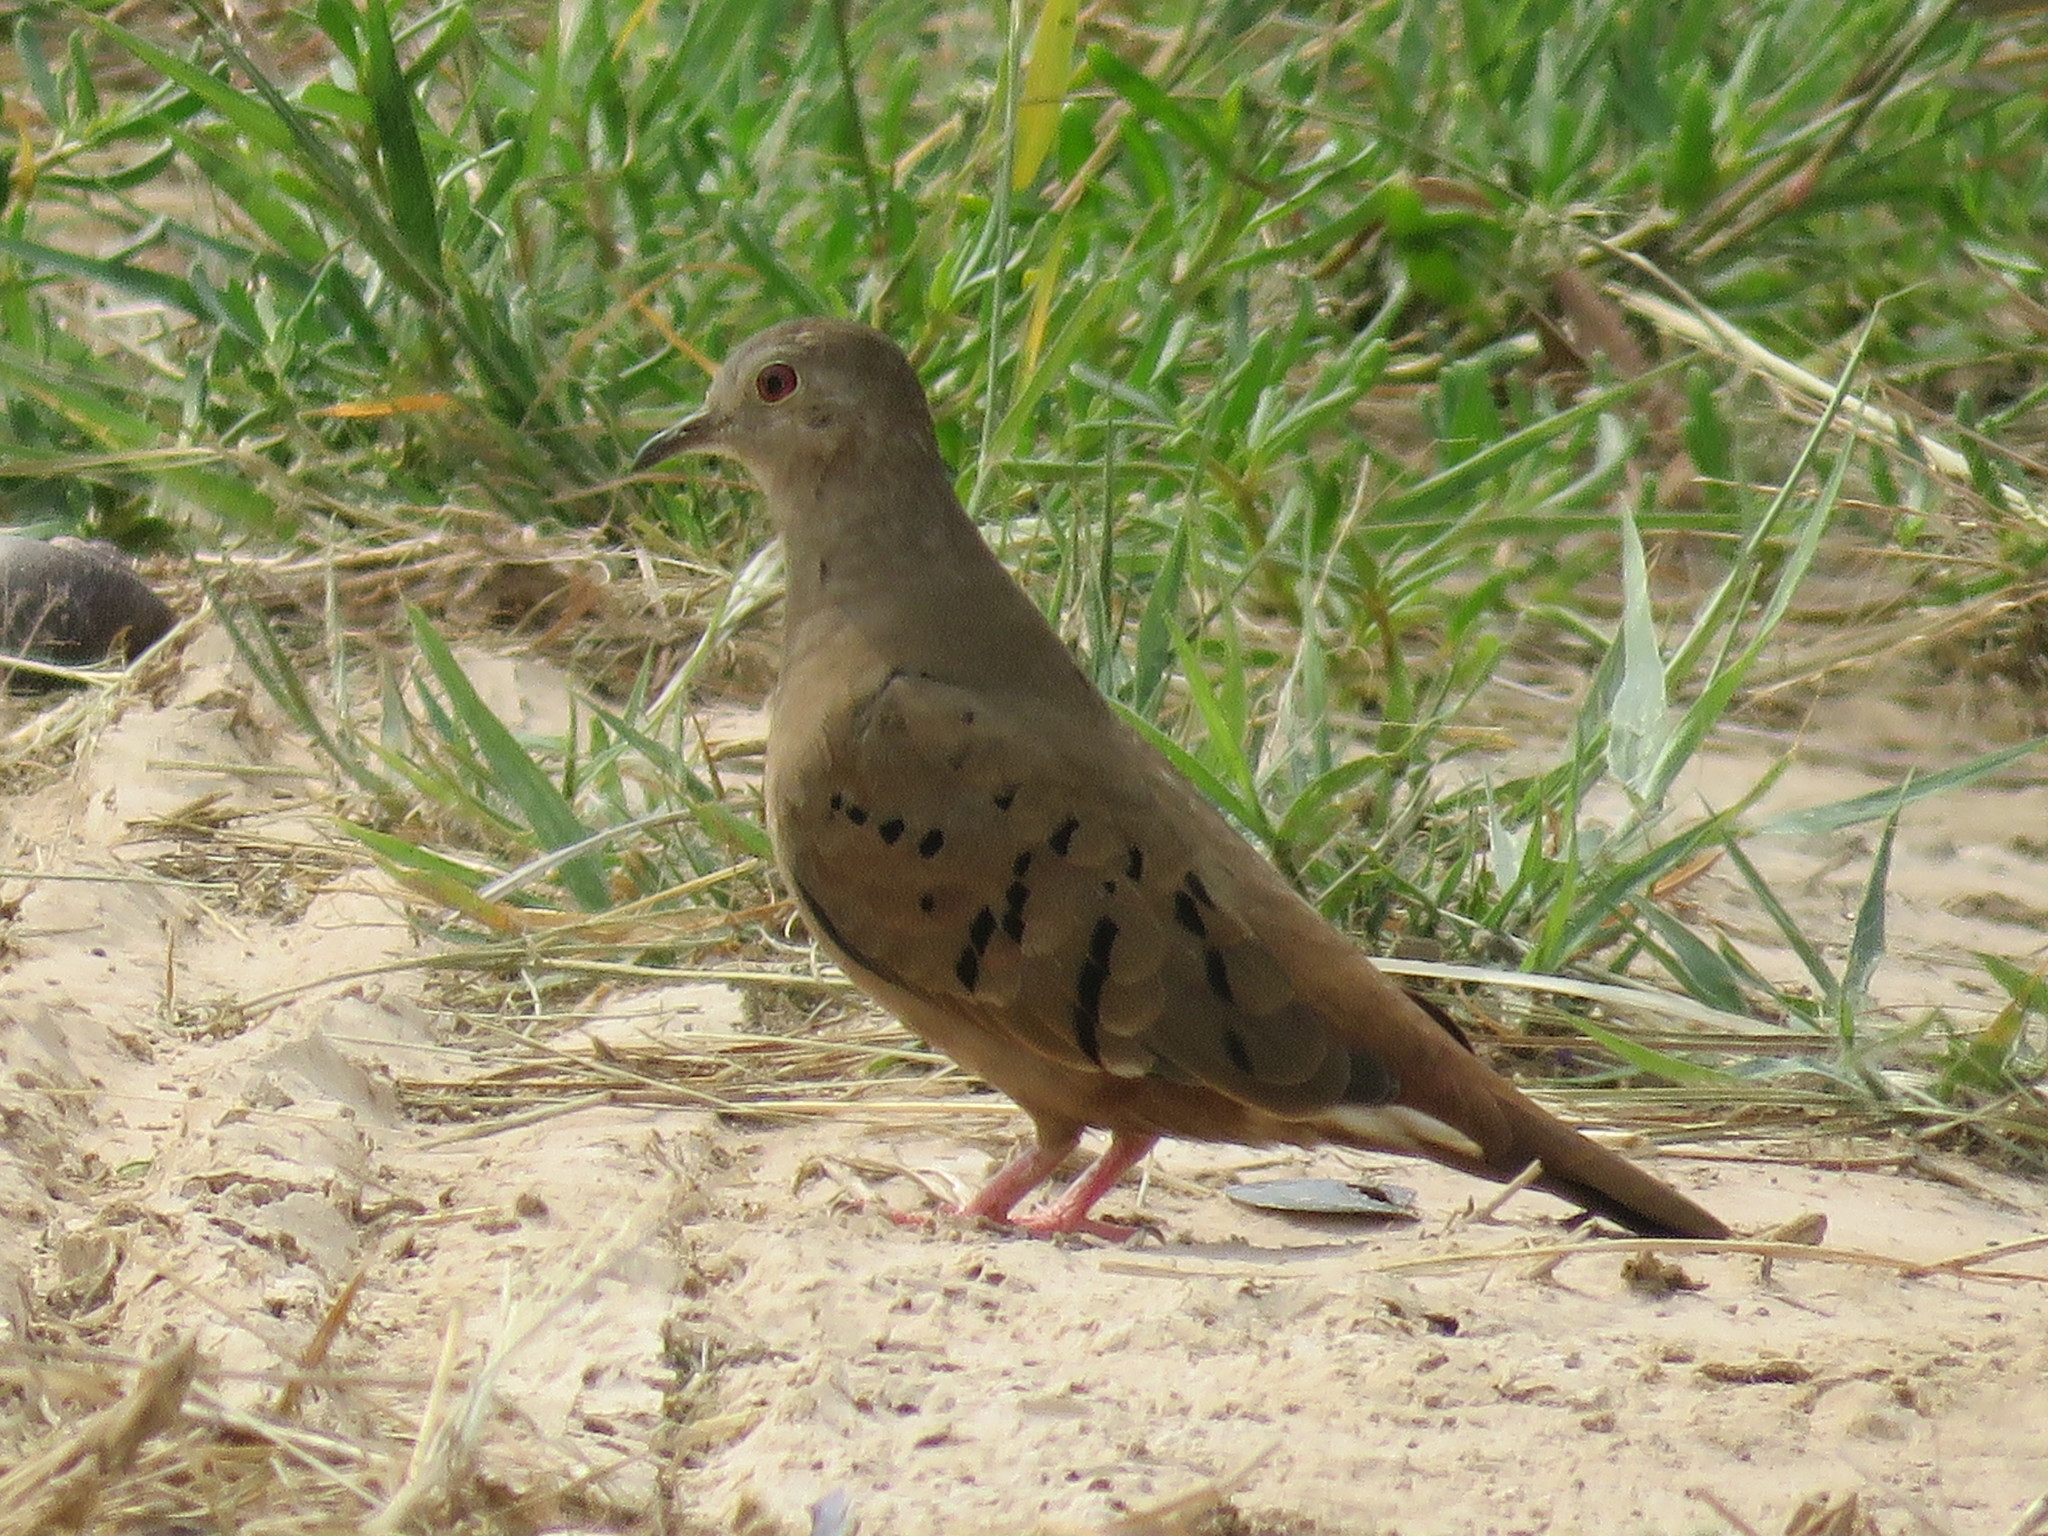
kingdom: Animalia
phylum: Chordata
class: Aves
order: Columbiformes
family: Columbidae
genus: Columbina
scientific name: Columbina talpacoti
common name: Ruddy ground dove
